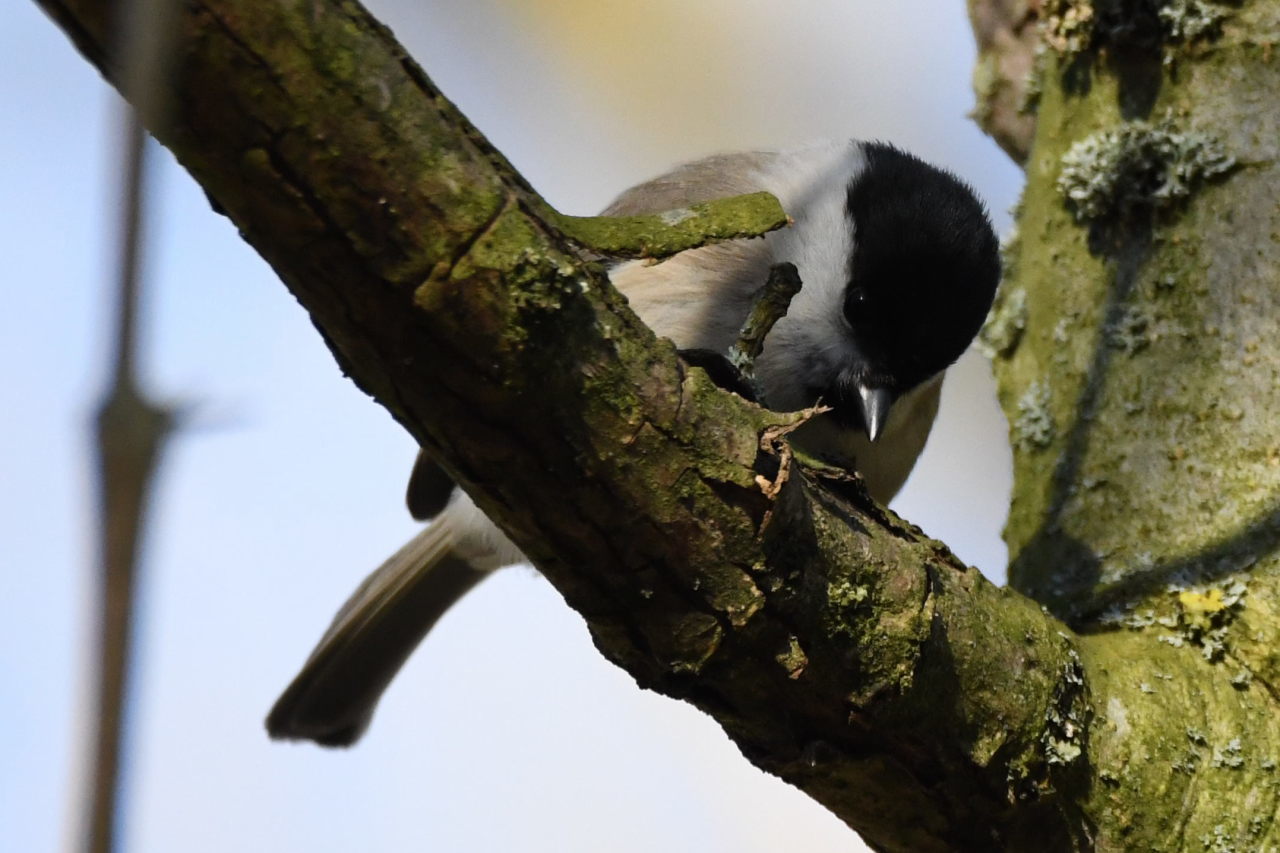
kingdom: Animalia
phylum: Chordata
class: Aves
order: Passeriformes
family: Paridae
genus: Poecile
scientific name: Poecile palustris
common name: Marsh tit
